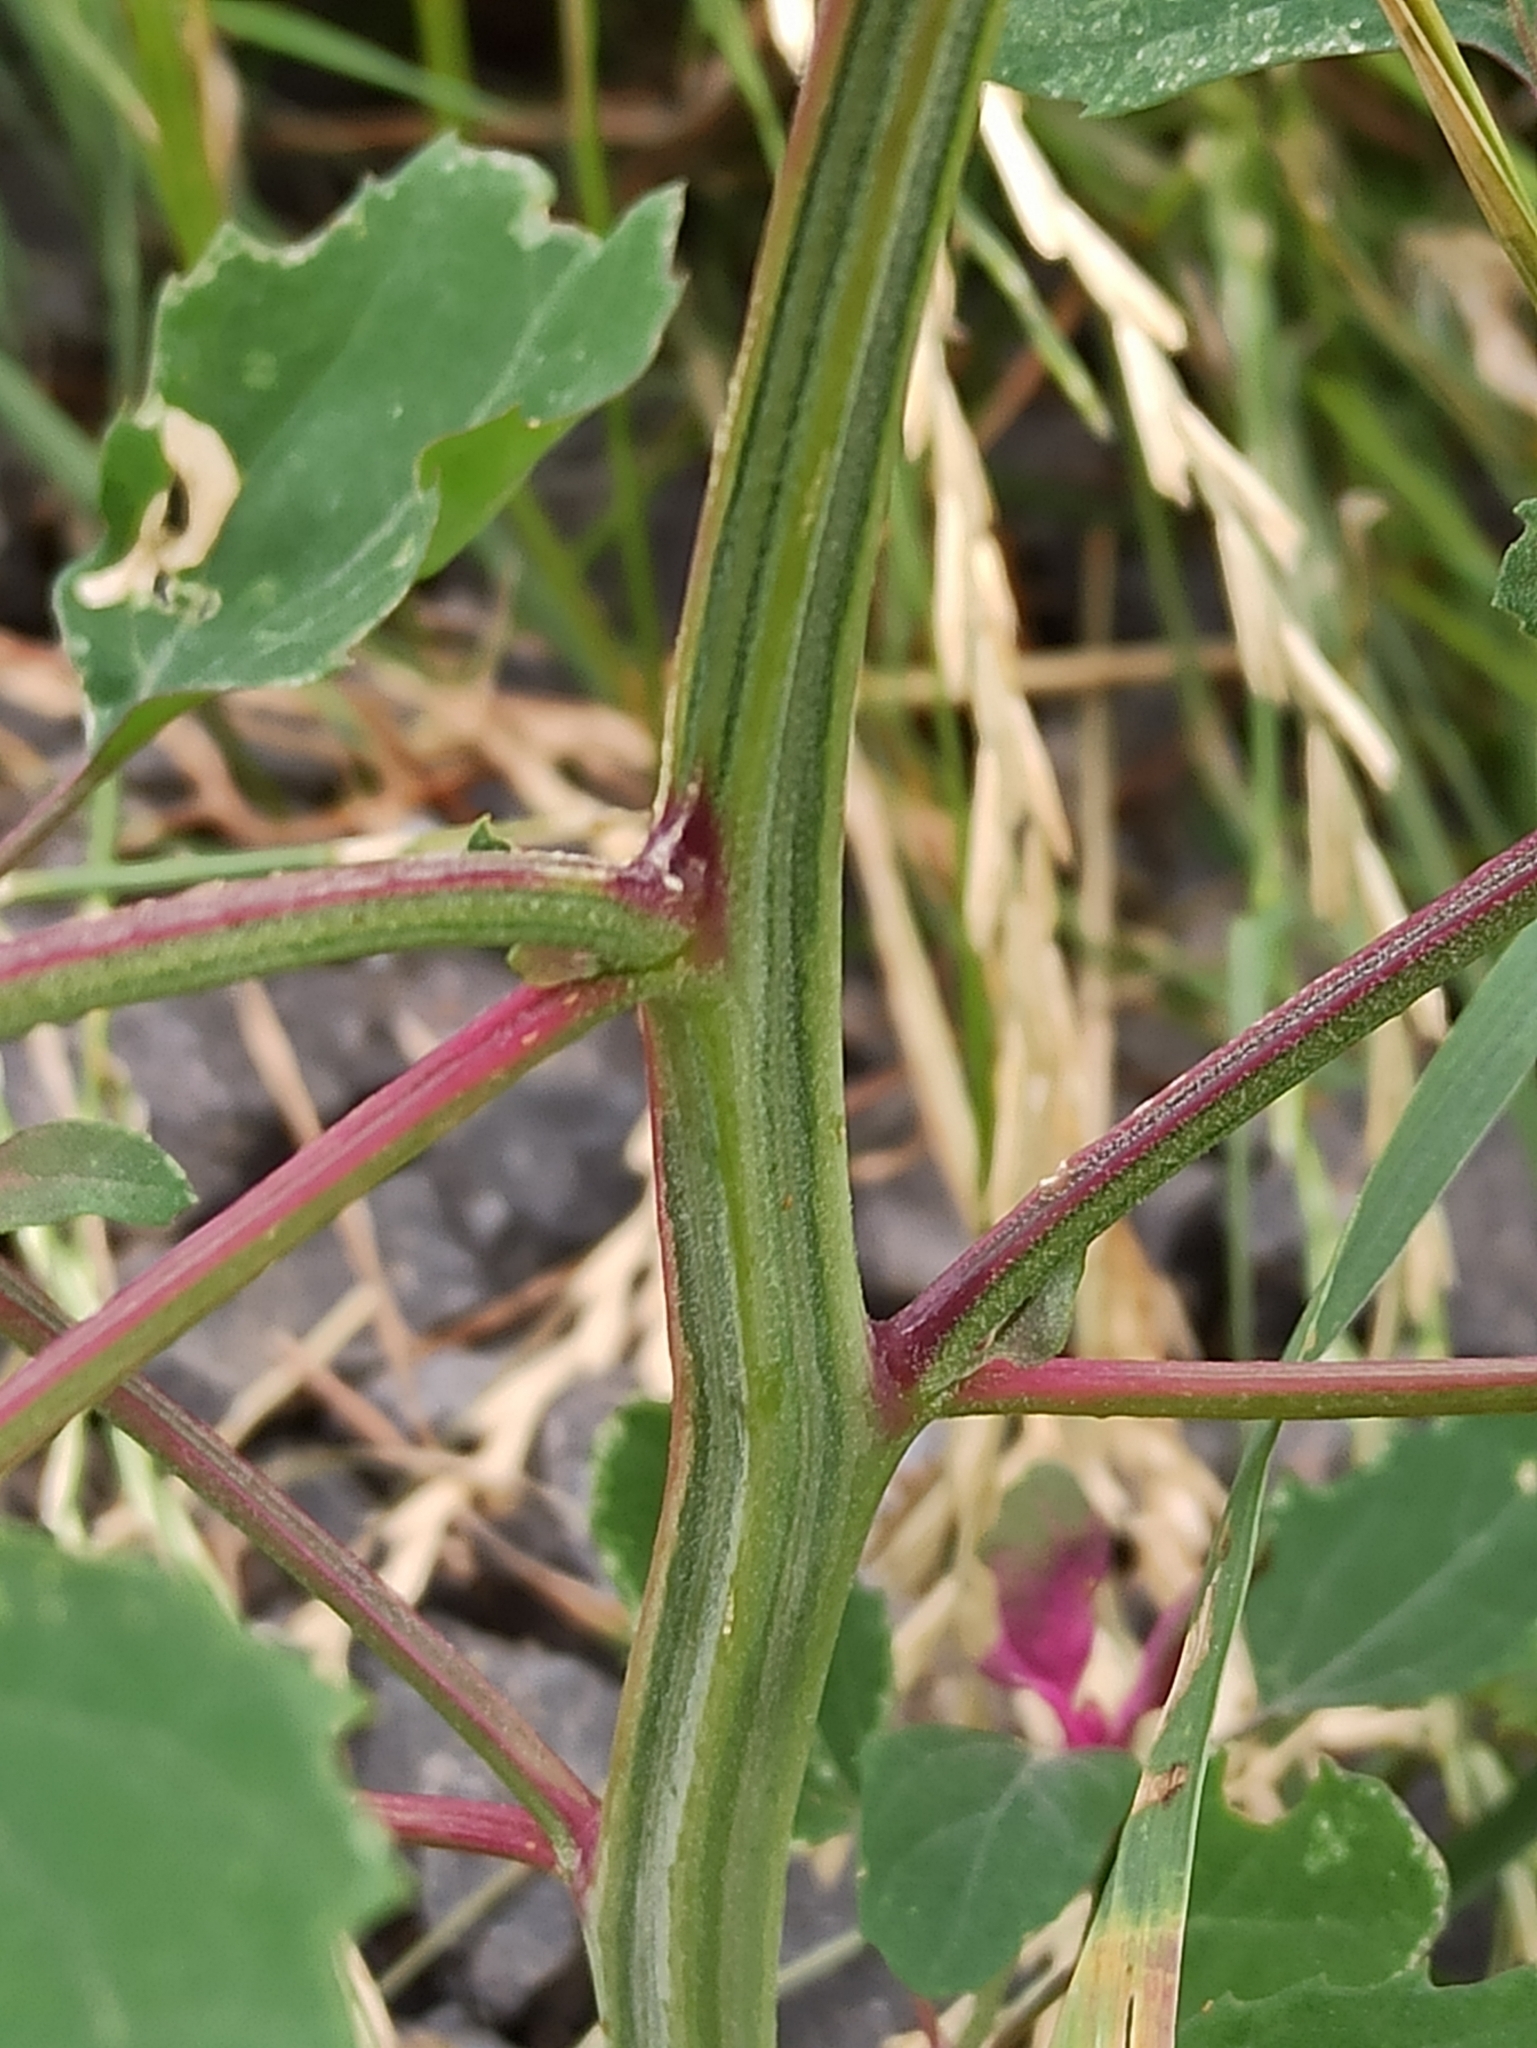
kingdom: Plantae
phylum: Tracheophyta
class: Magnoliopsida
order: Caryophyllales
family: Amaranthaceae
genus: Chenopodium
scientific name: Chenopodium giganteum
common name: Magentaspreen
